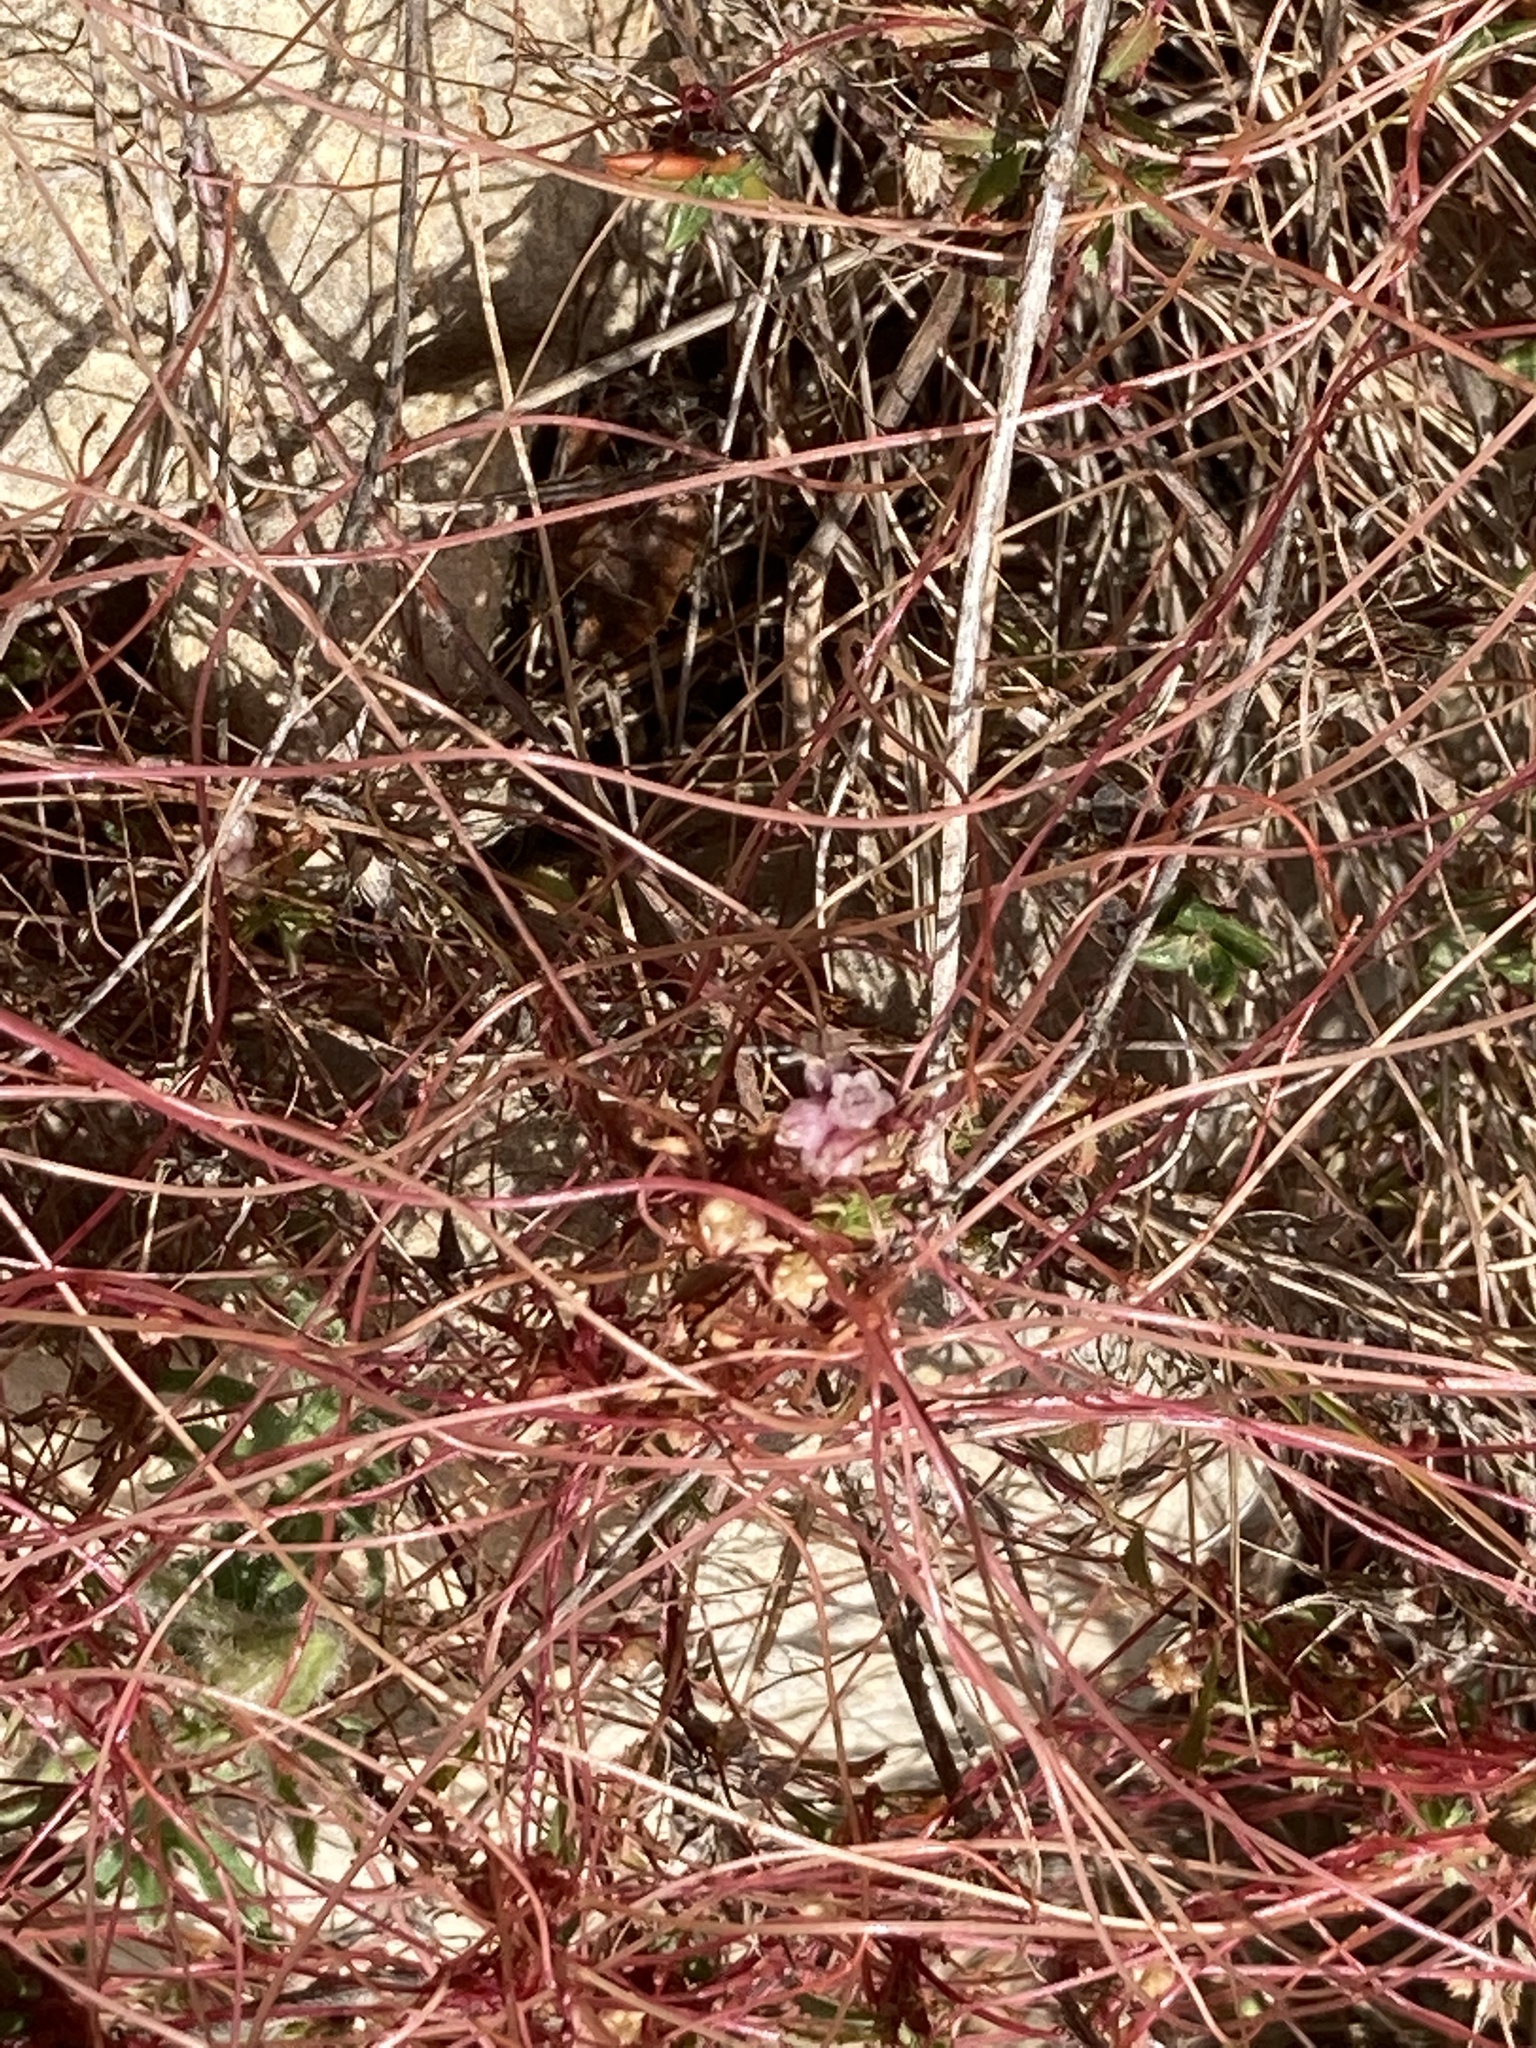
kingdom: Plantae
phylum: Tracheophyta
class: Magnoliopsida
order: Solanales
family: Convolvulaceae
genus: Cuscuta
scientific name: Cuscuta epithymum
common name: Clover dodder
